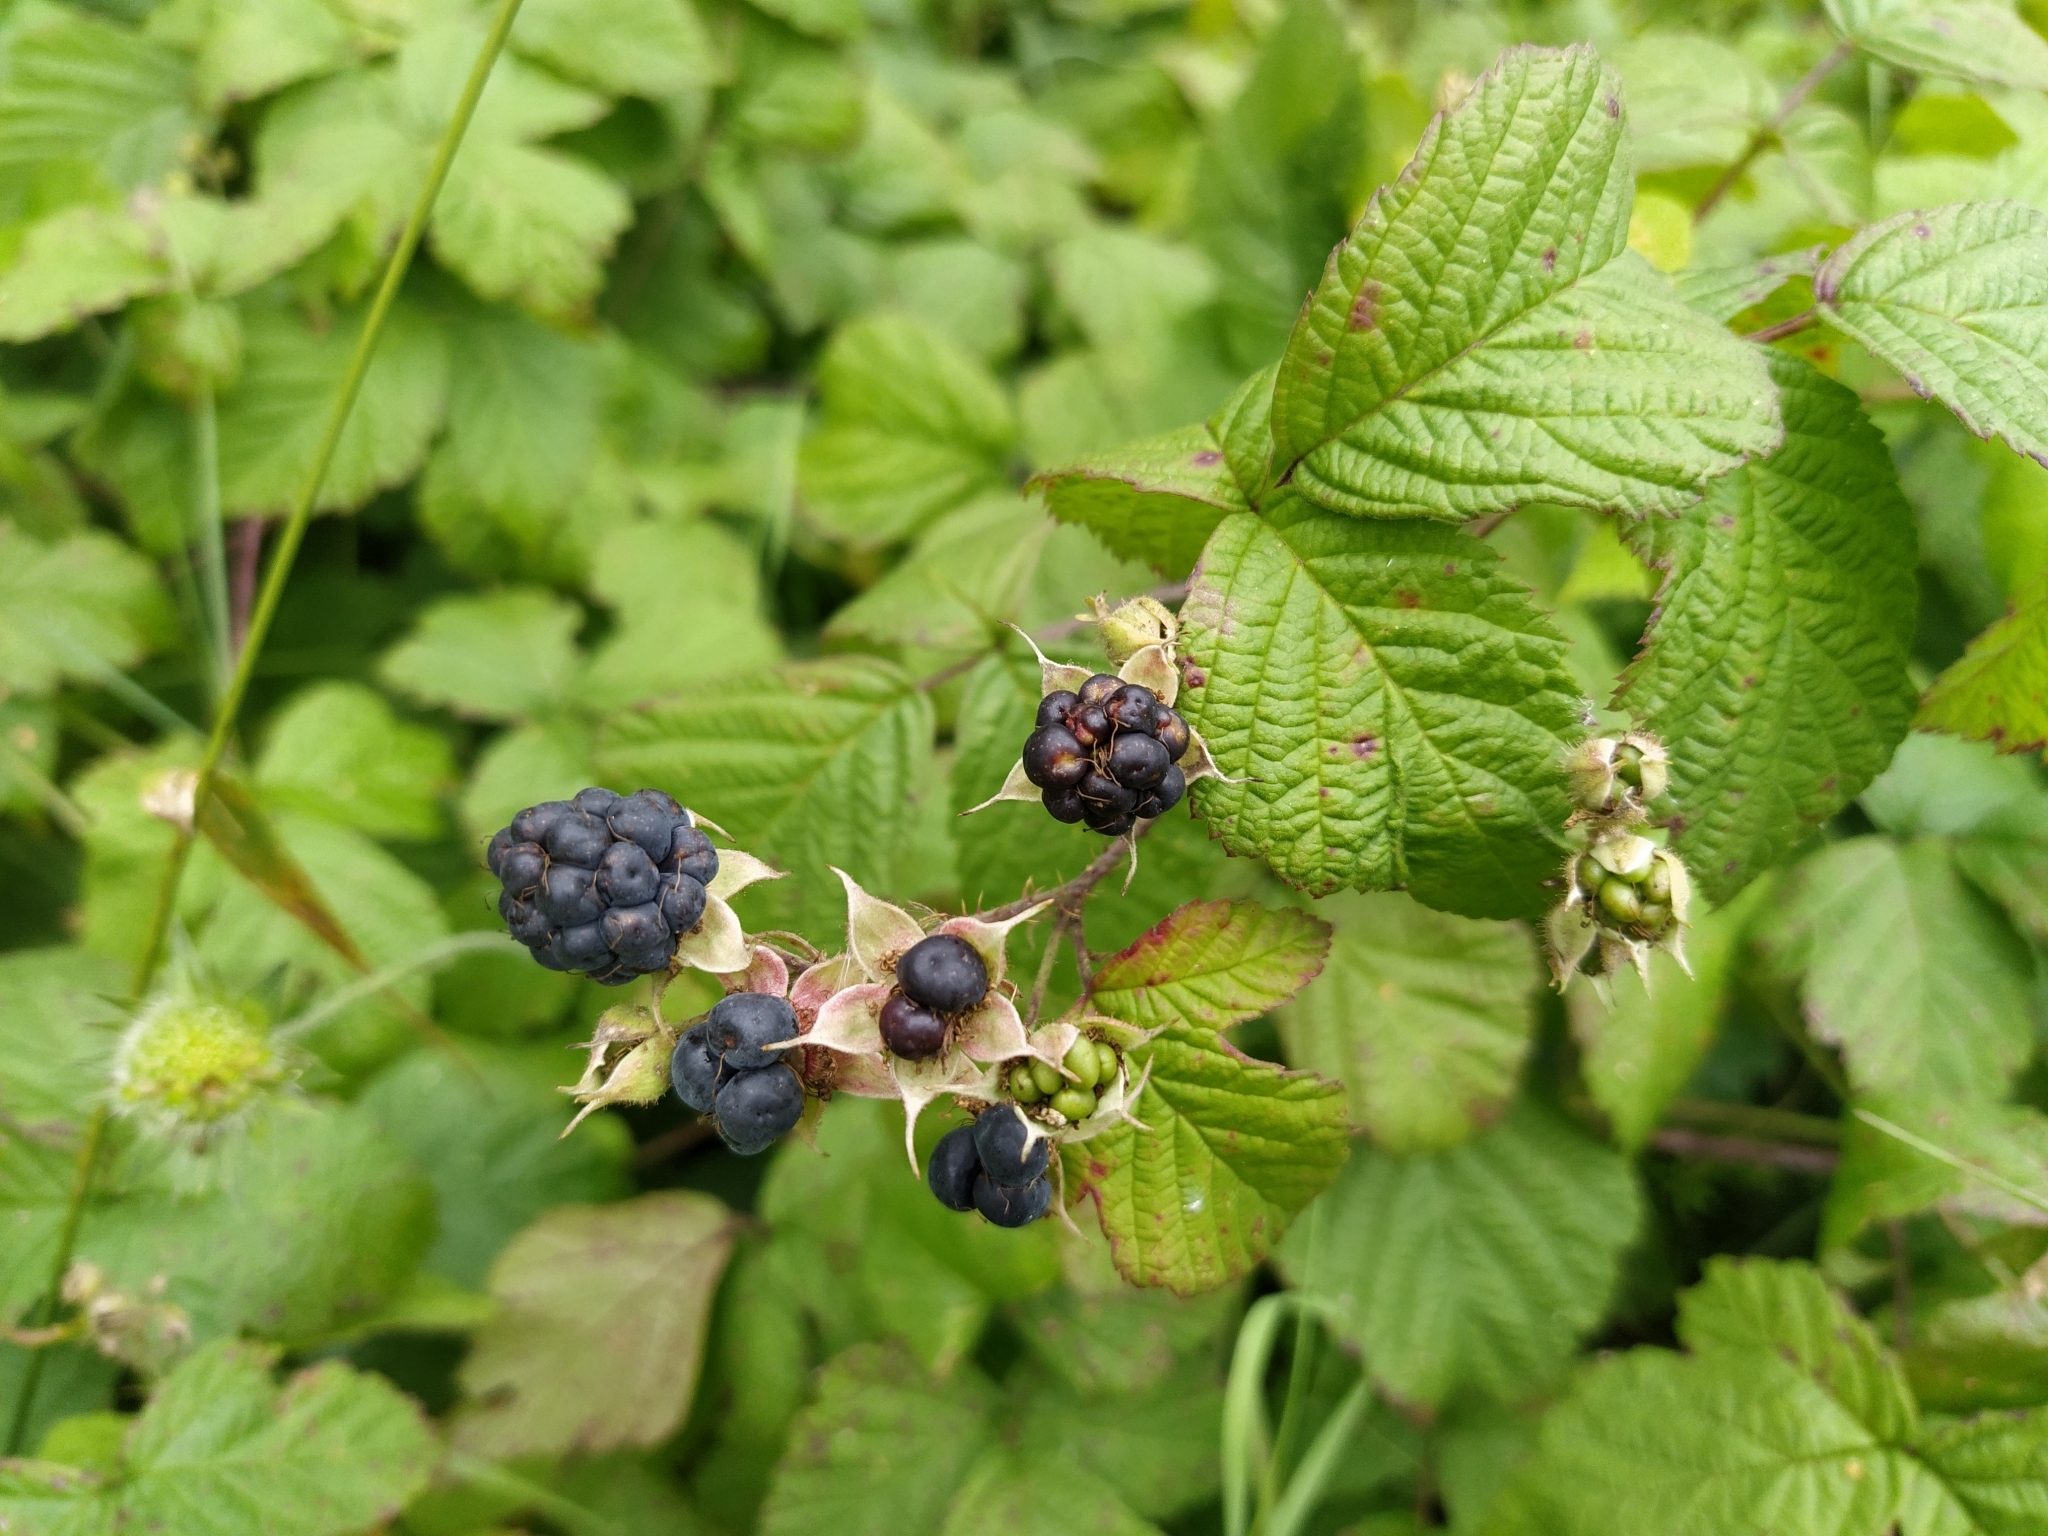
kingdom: Plantae
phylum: Tracheophyta
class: Magnoliopsida
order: Rosales
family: Rosaceae
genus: Rubus
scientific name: Rubus caesius
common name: Dewberry
